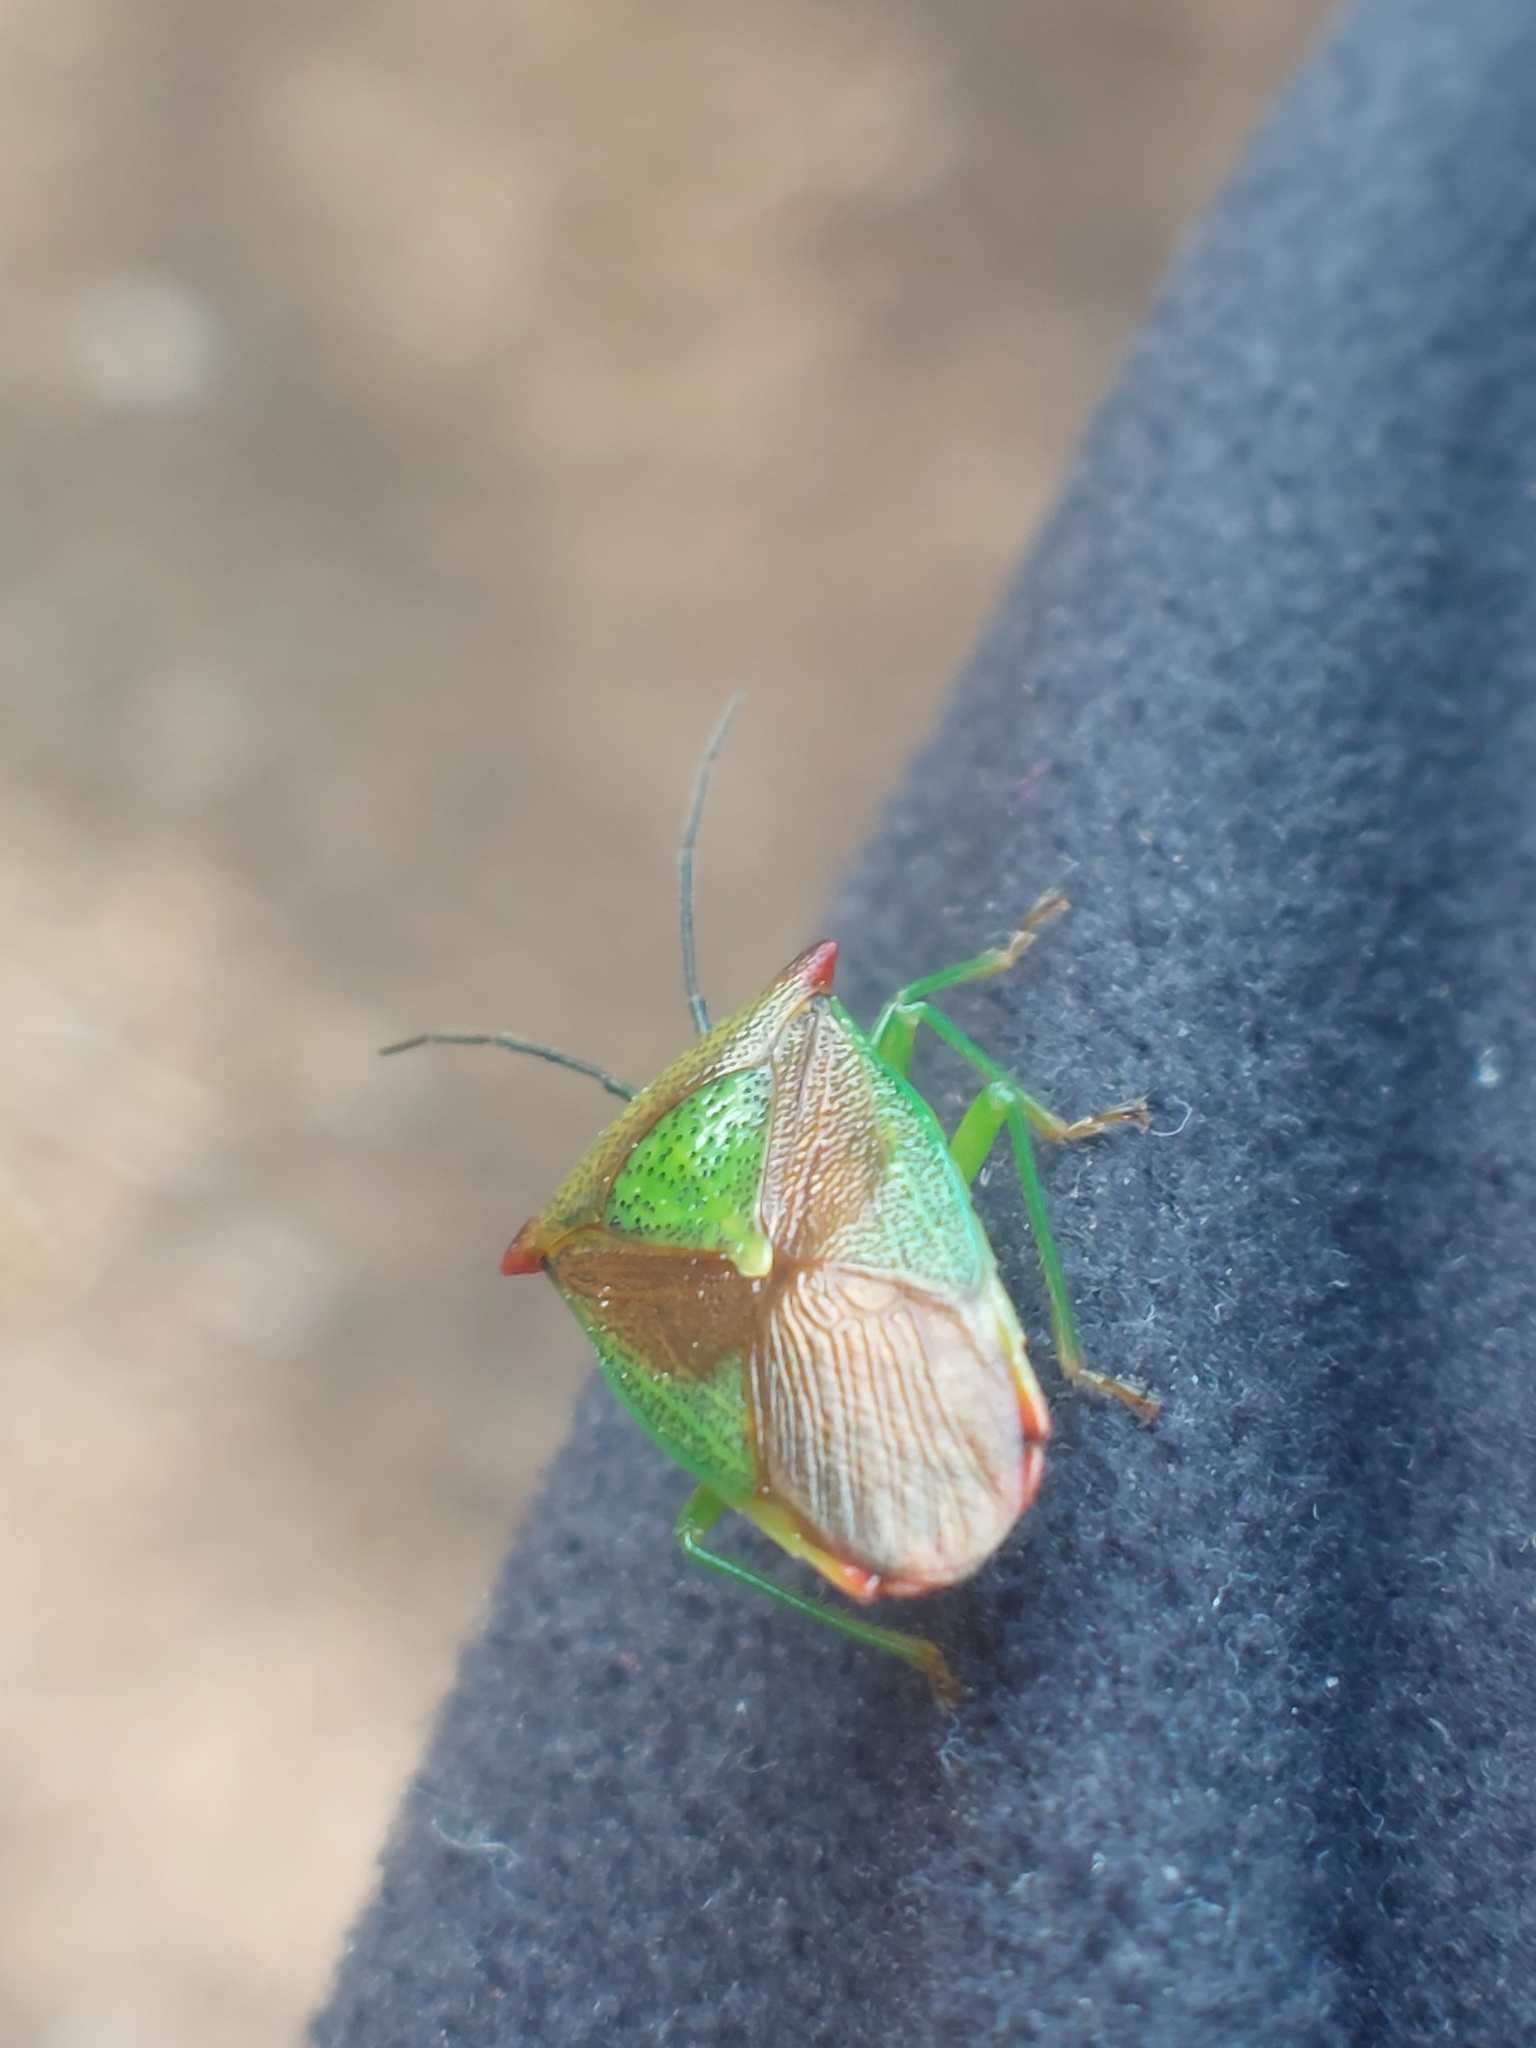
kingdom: Animalia
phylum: Arthropoda
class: Insecta
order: Hemiptera
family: Acanthosomatidae
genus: Acanthosoma
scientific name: Acanthosoma haemorrhoidale
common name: Hawthorn shieldbug
